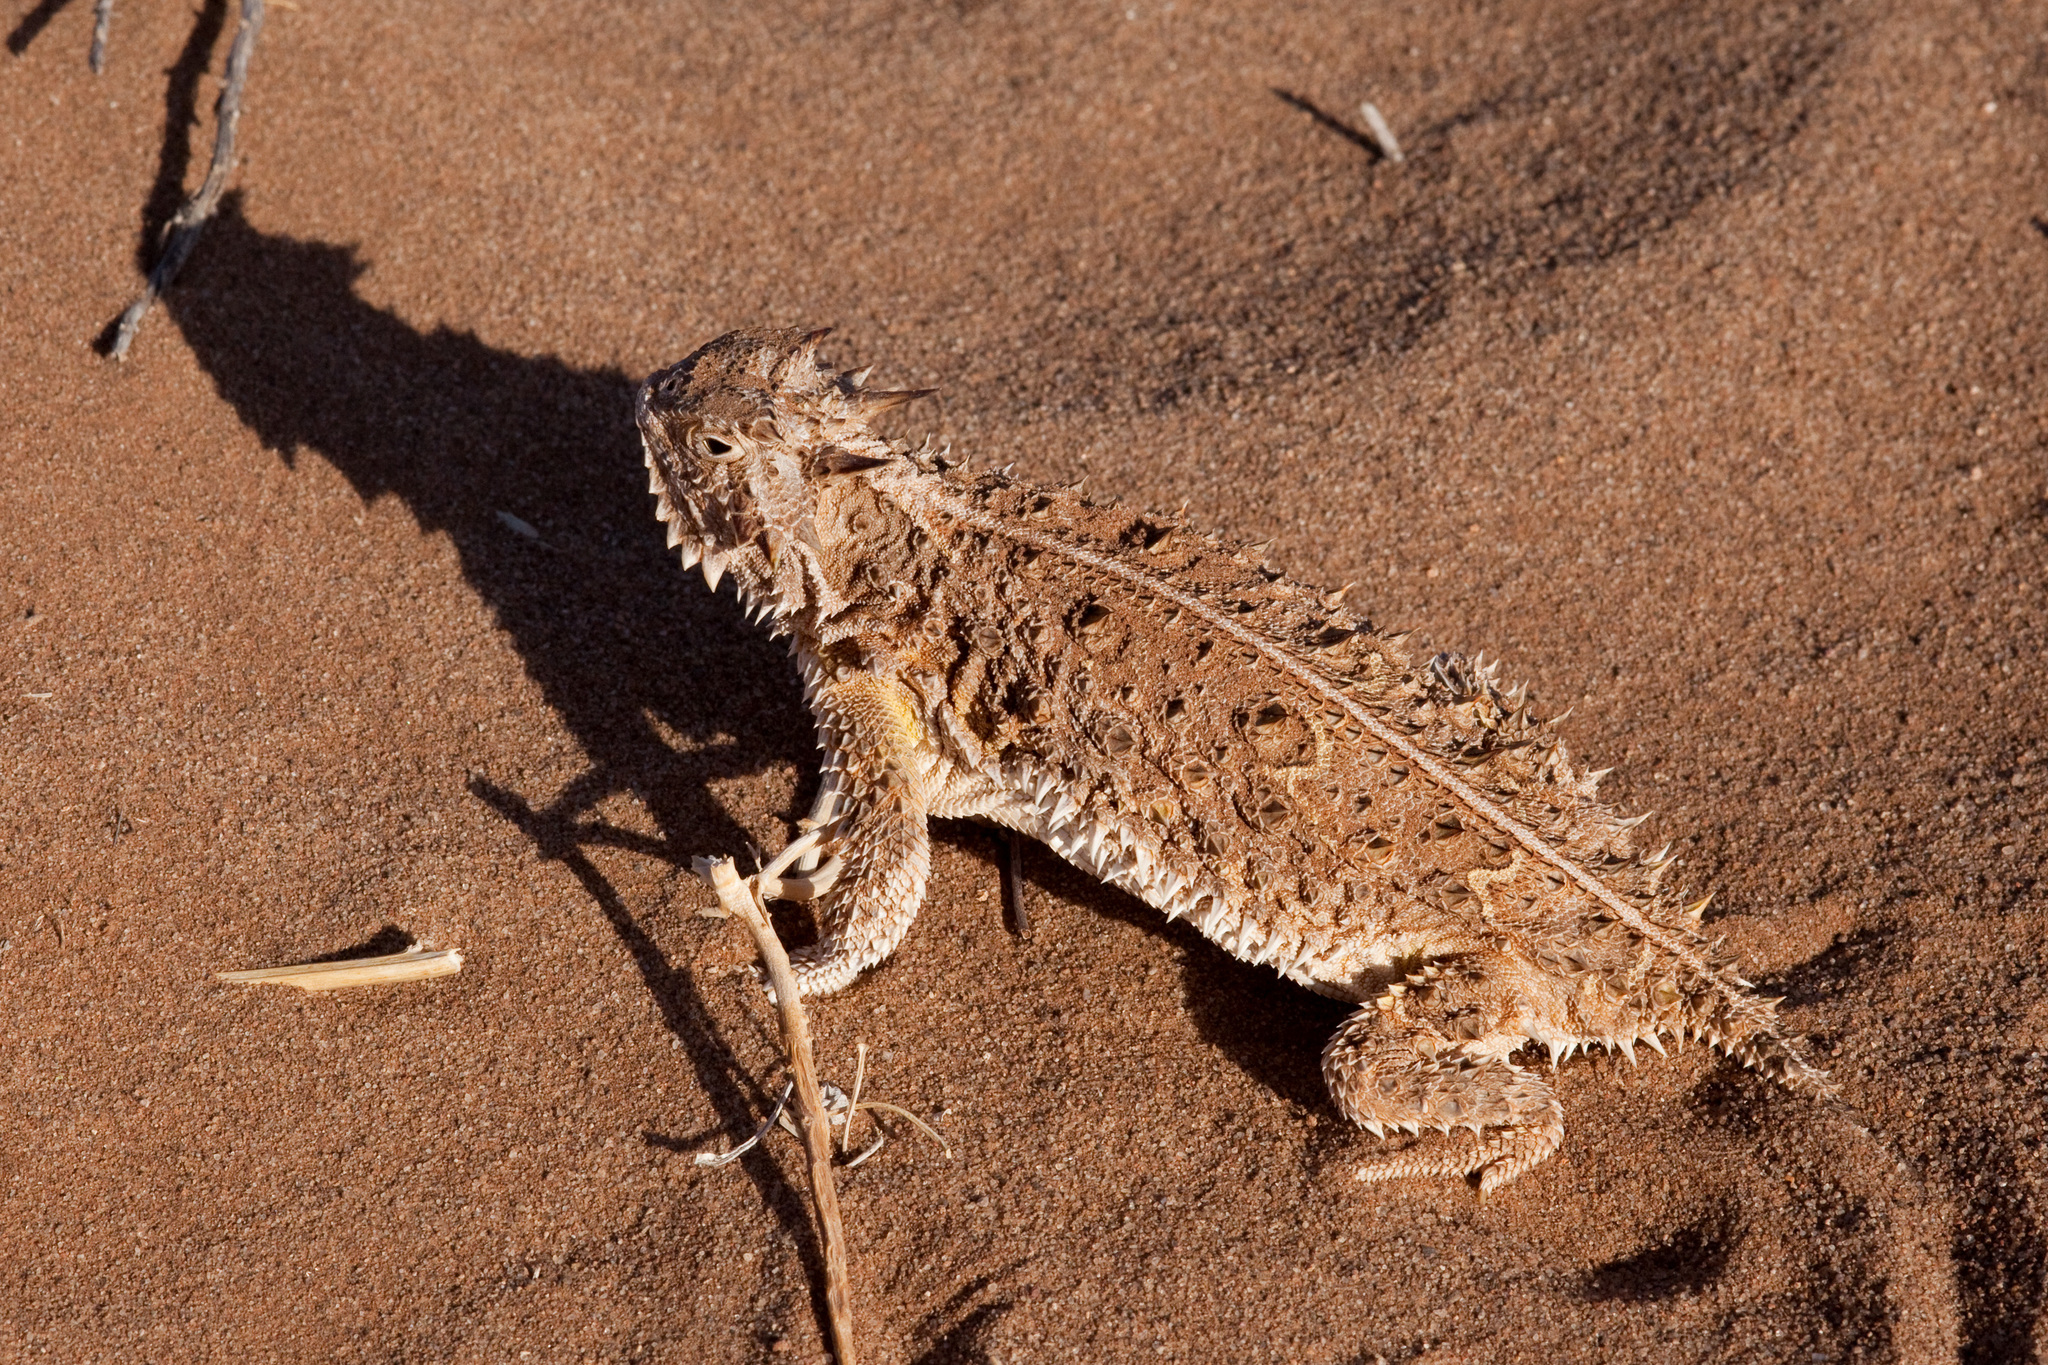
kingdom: Animalia
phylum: Chordata
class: Squamata
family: Phrynosomatidae
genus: Phrynosoma
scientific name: Phrynosoma cornutum
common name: Texas horned lizard
